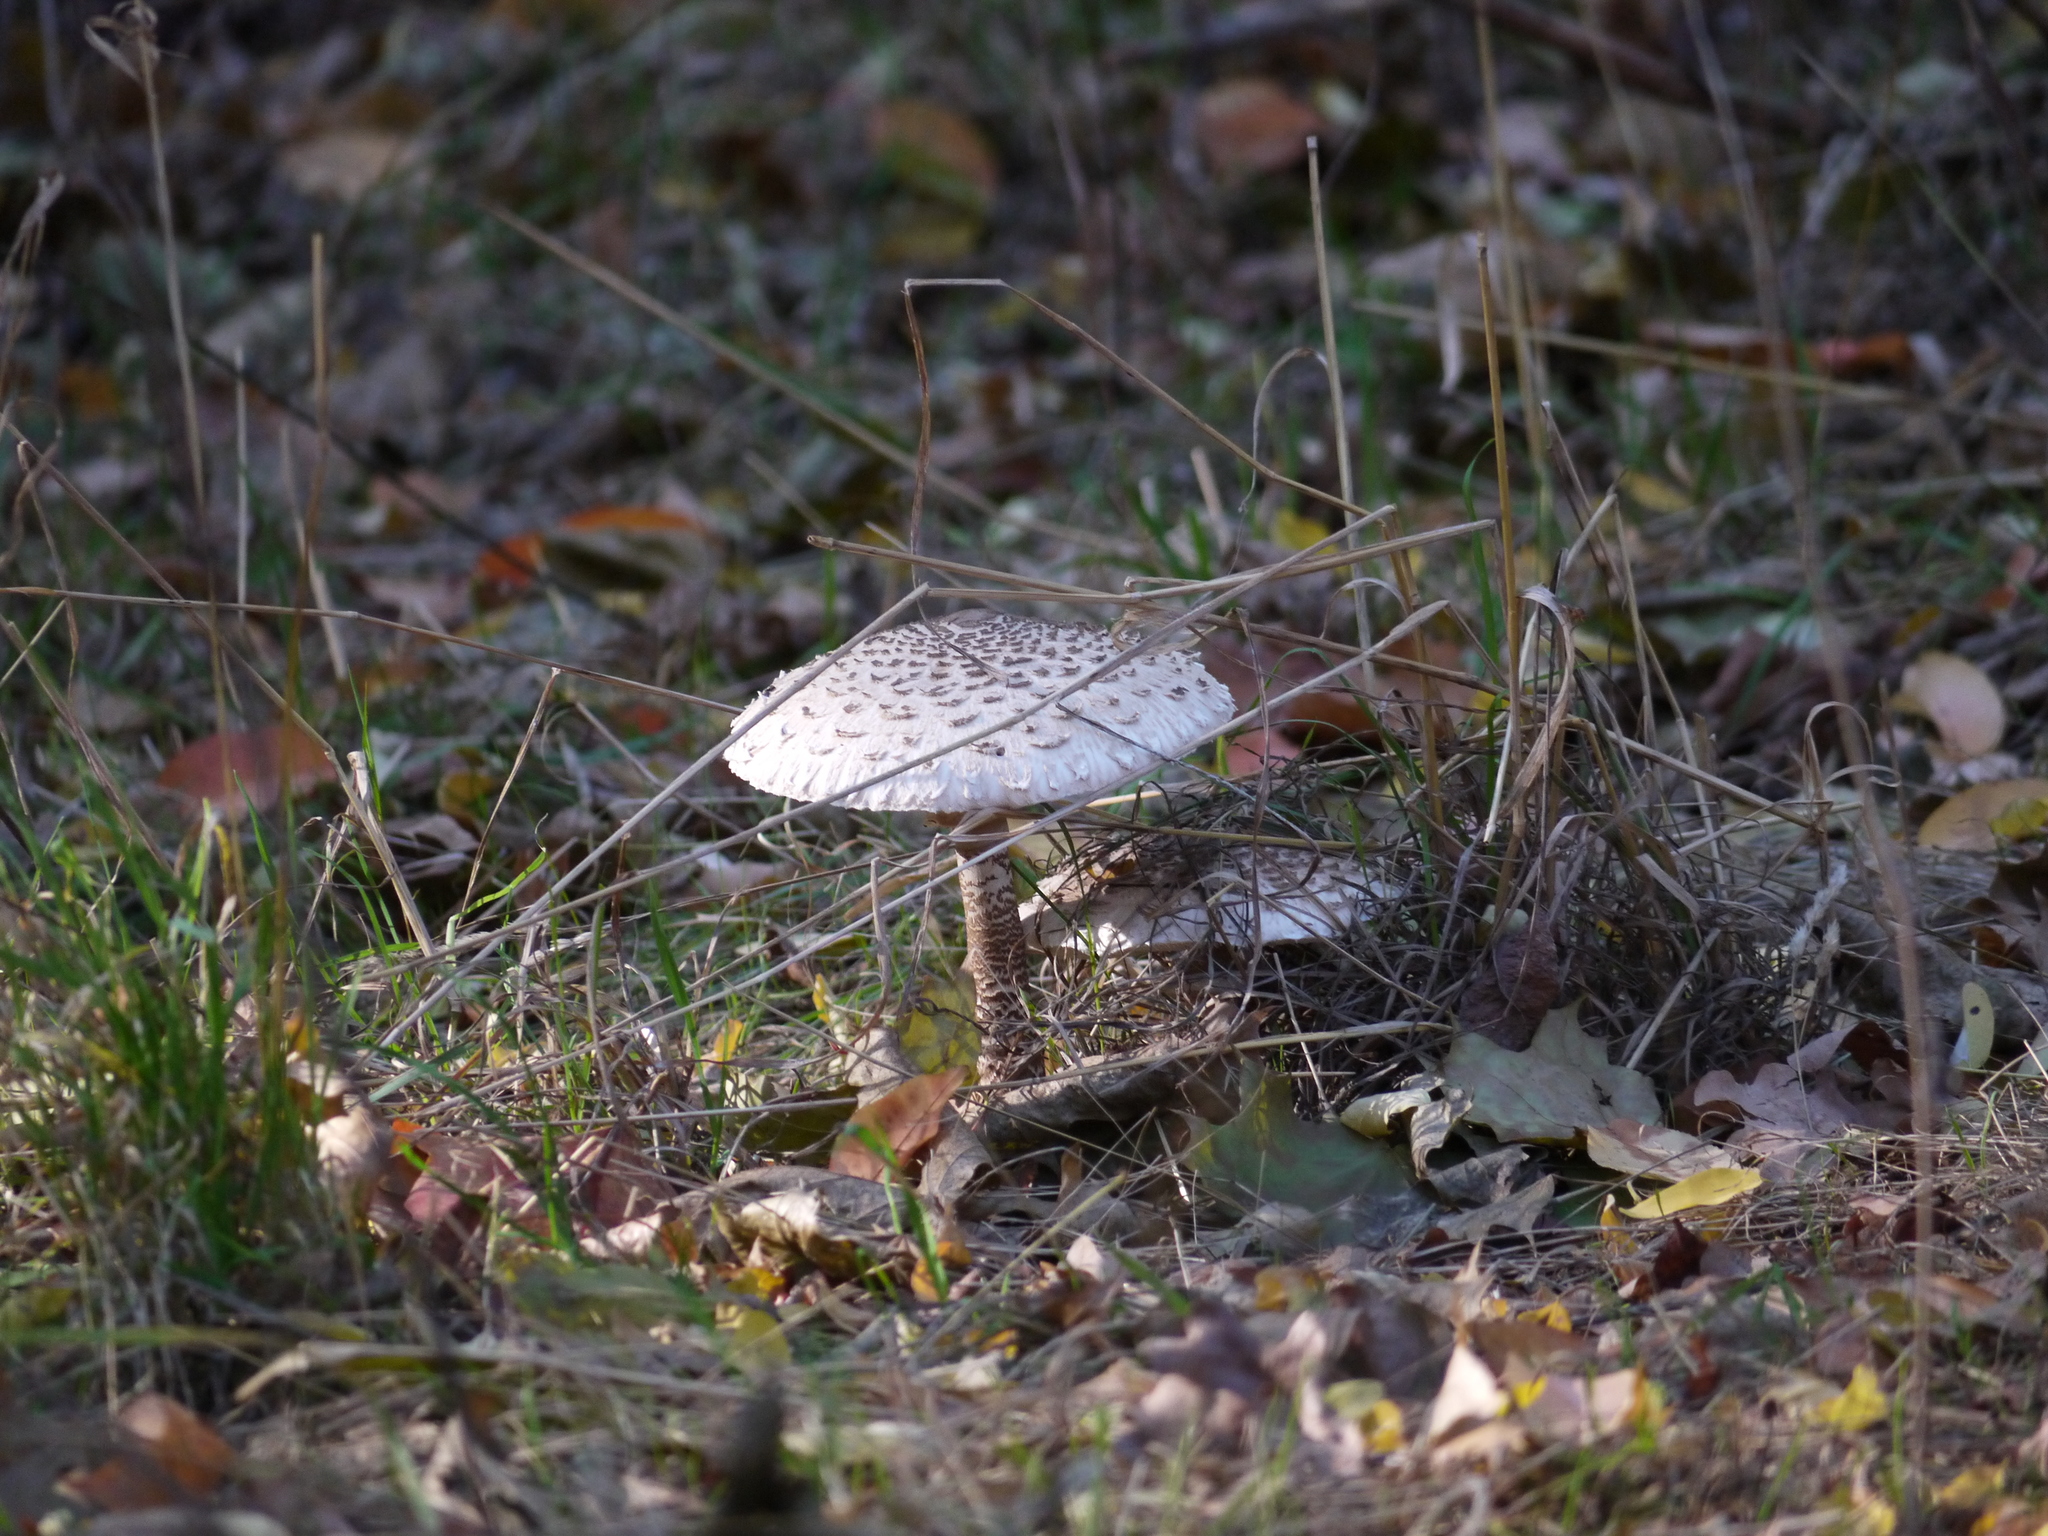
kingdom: Fungi
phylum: Basidiomycota
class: Agaricomycetes
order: Agaricales
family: Agaricaceae
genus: Macrolepiota
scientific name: Macrolepiota procera
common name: Parasol
